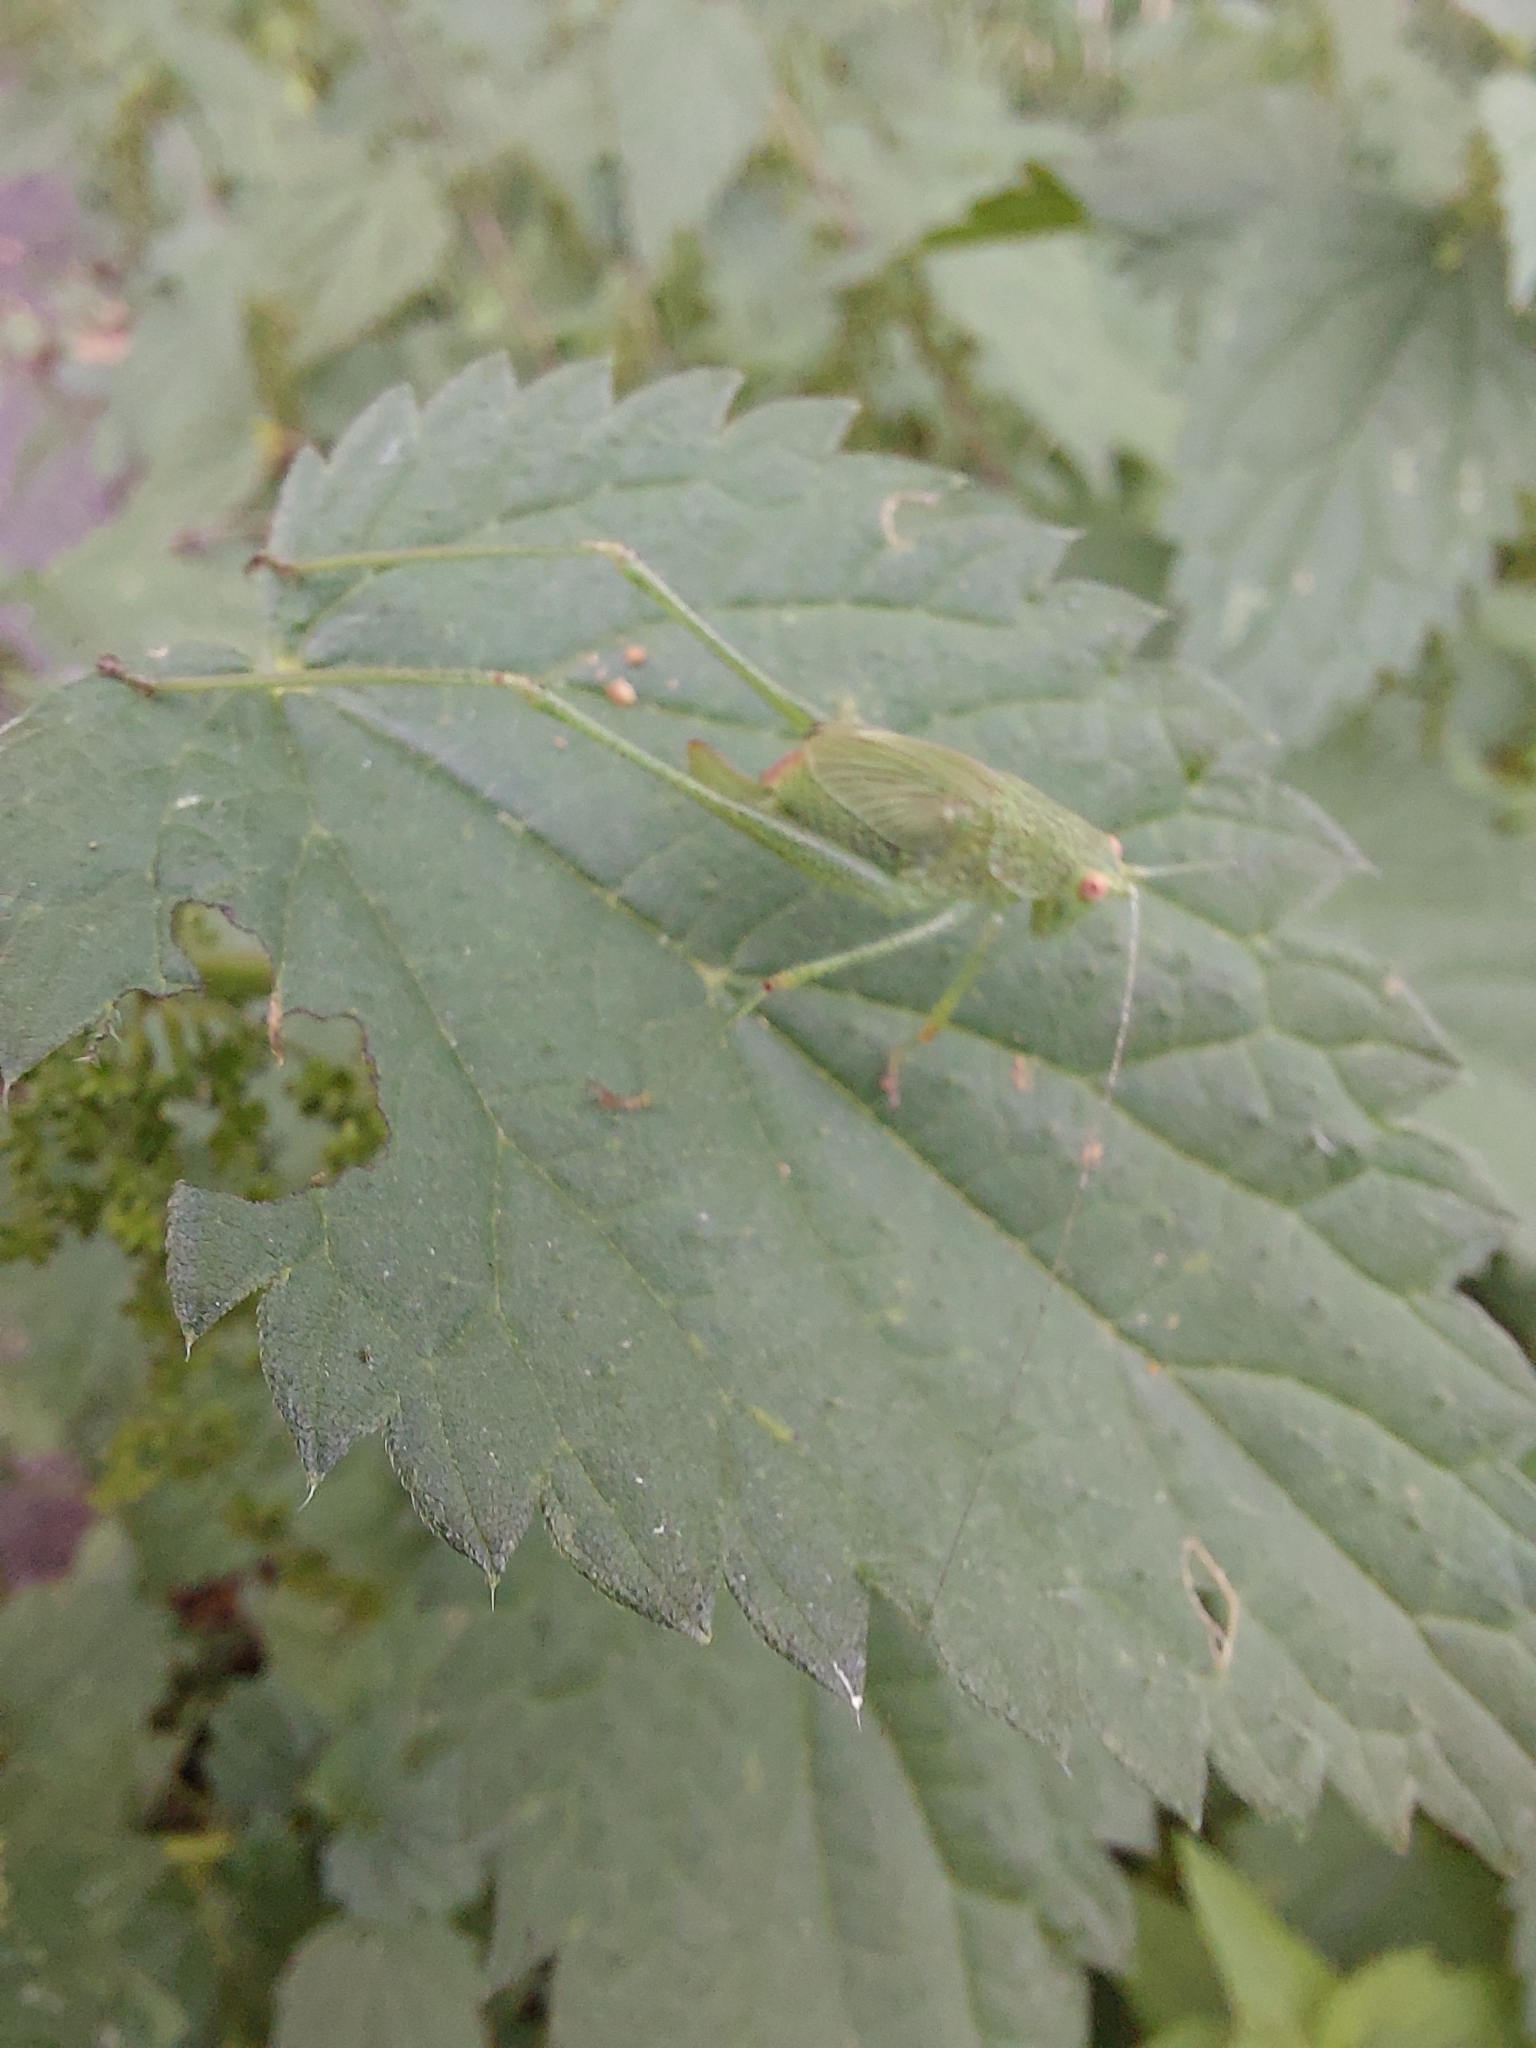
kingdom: Animalia
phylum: Arthropoda
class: Insecta
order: Orthoptera
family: Tettigoniidae
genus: Phaneroptera
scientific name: Phaneroptera nana
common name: Southern sickle bush-cricket
